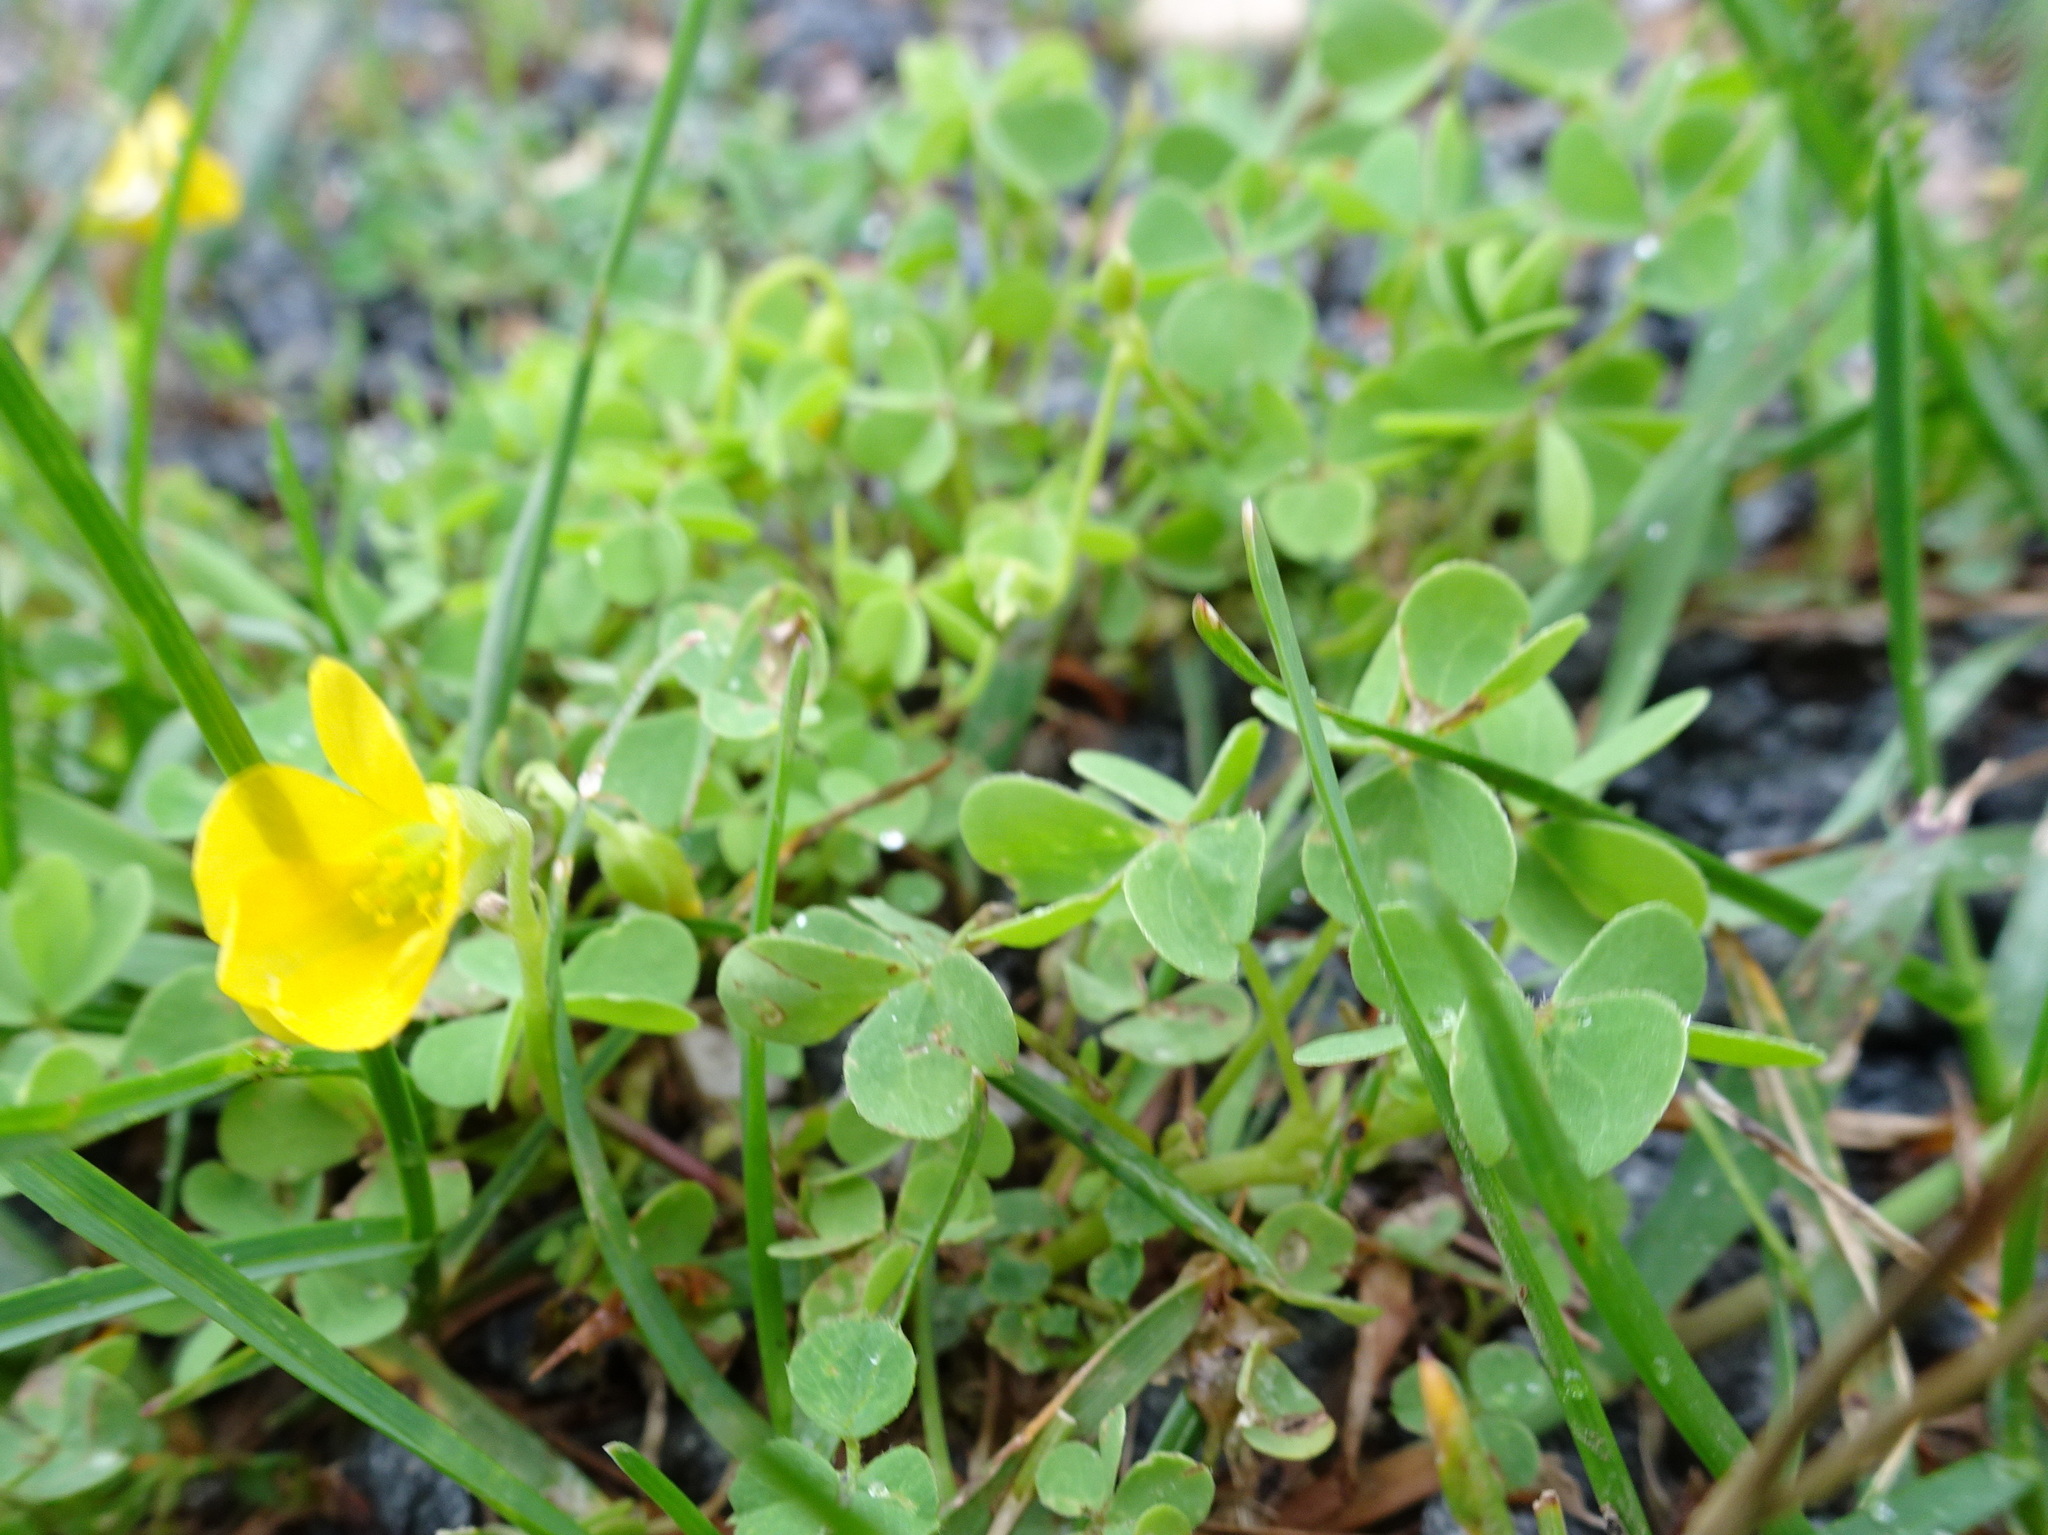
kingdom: Plantae
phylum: Tracheophyta
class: Magnoliopsida
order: Oxalidales
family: Oxalidaceae
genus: Oxalis
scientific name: Oxalis corniculata
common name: Procumbent yellow-sorrel
